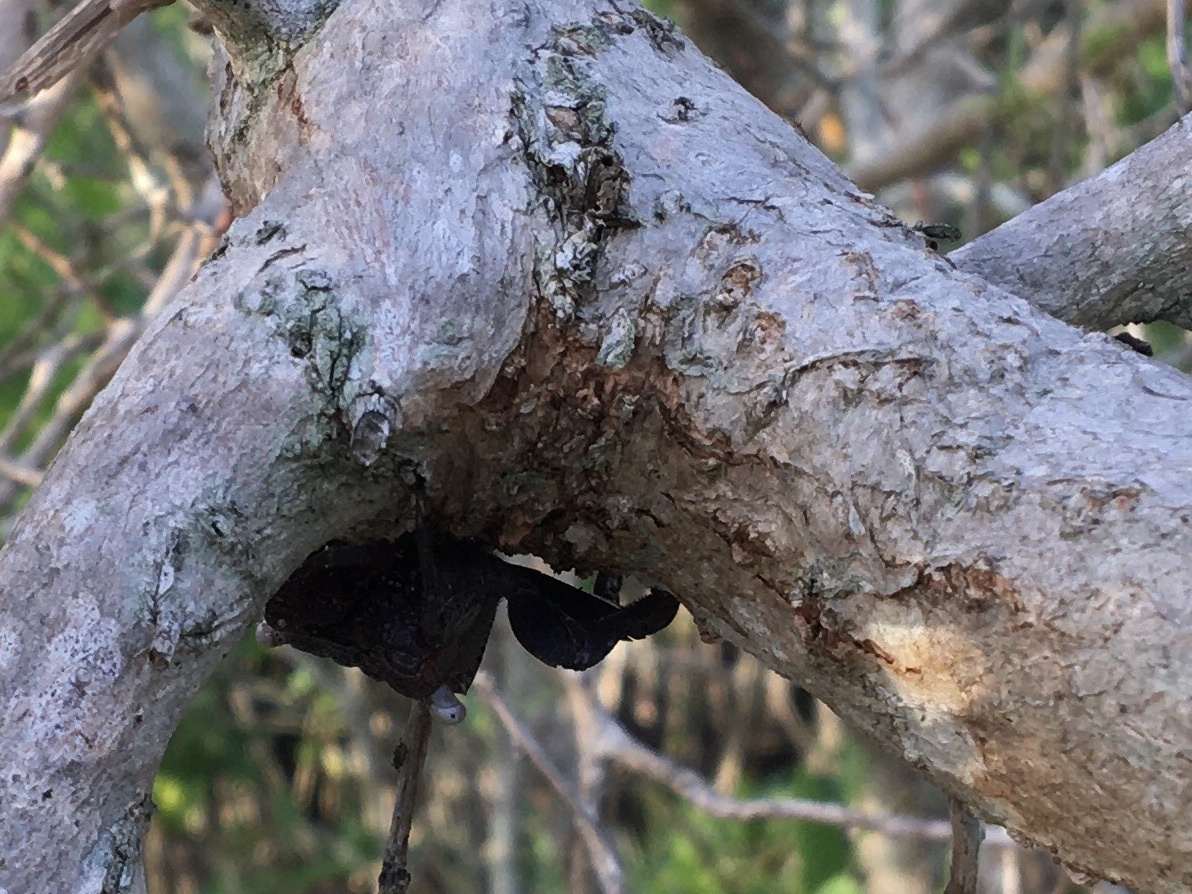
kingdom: Animalia
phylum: Arthropoda
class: Malacostraca
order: Decapoda
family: Sesarmidae
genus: Aratus
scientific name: Aratus pisonii
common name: Mangrove crab
